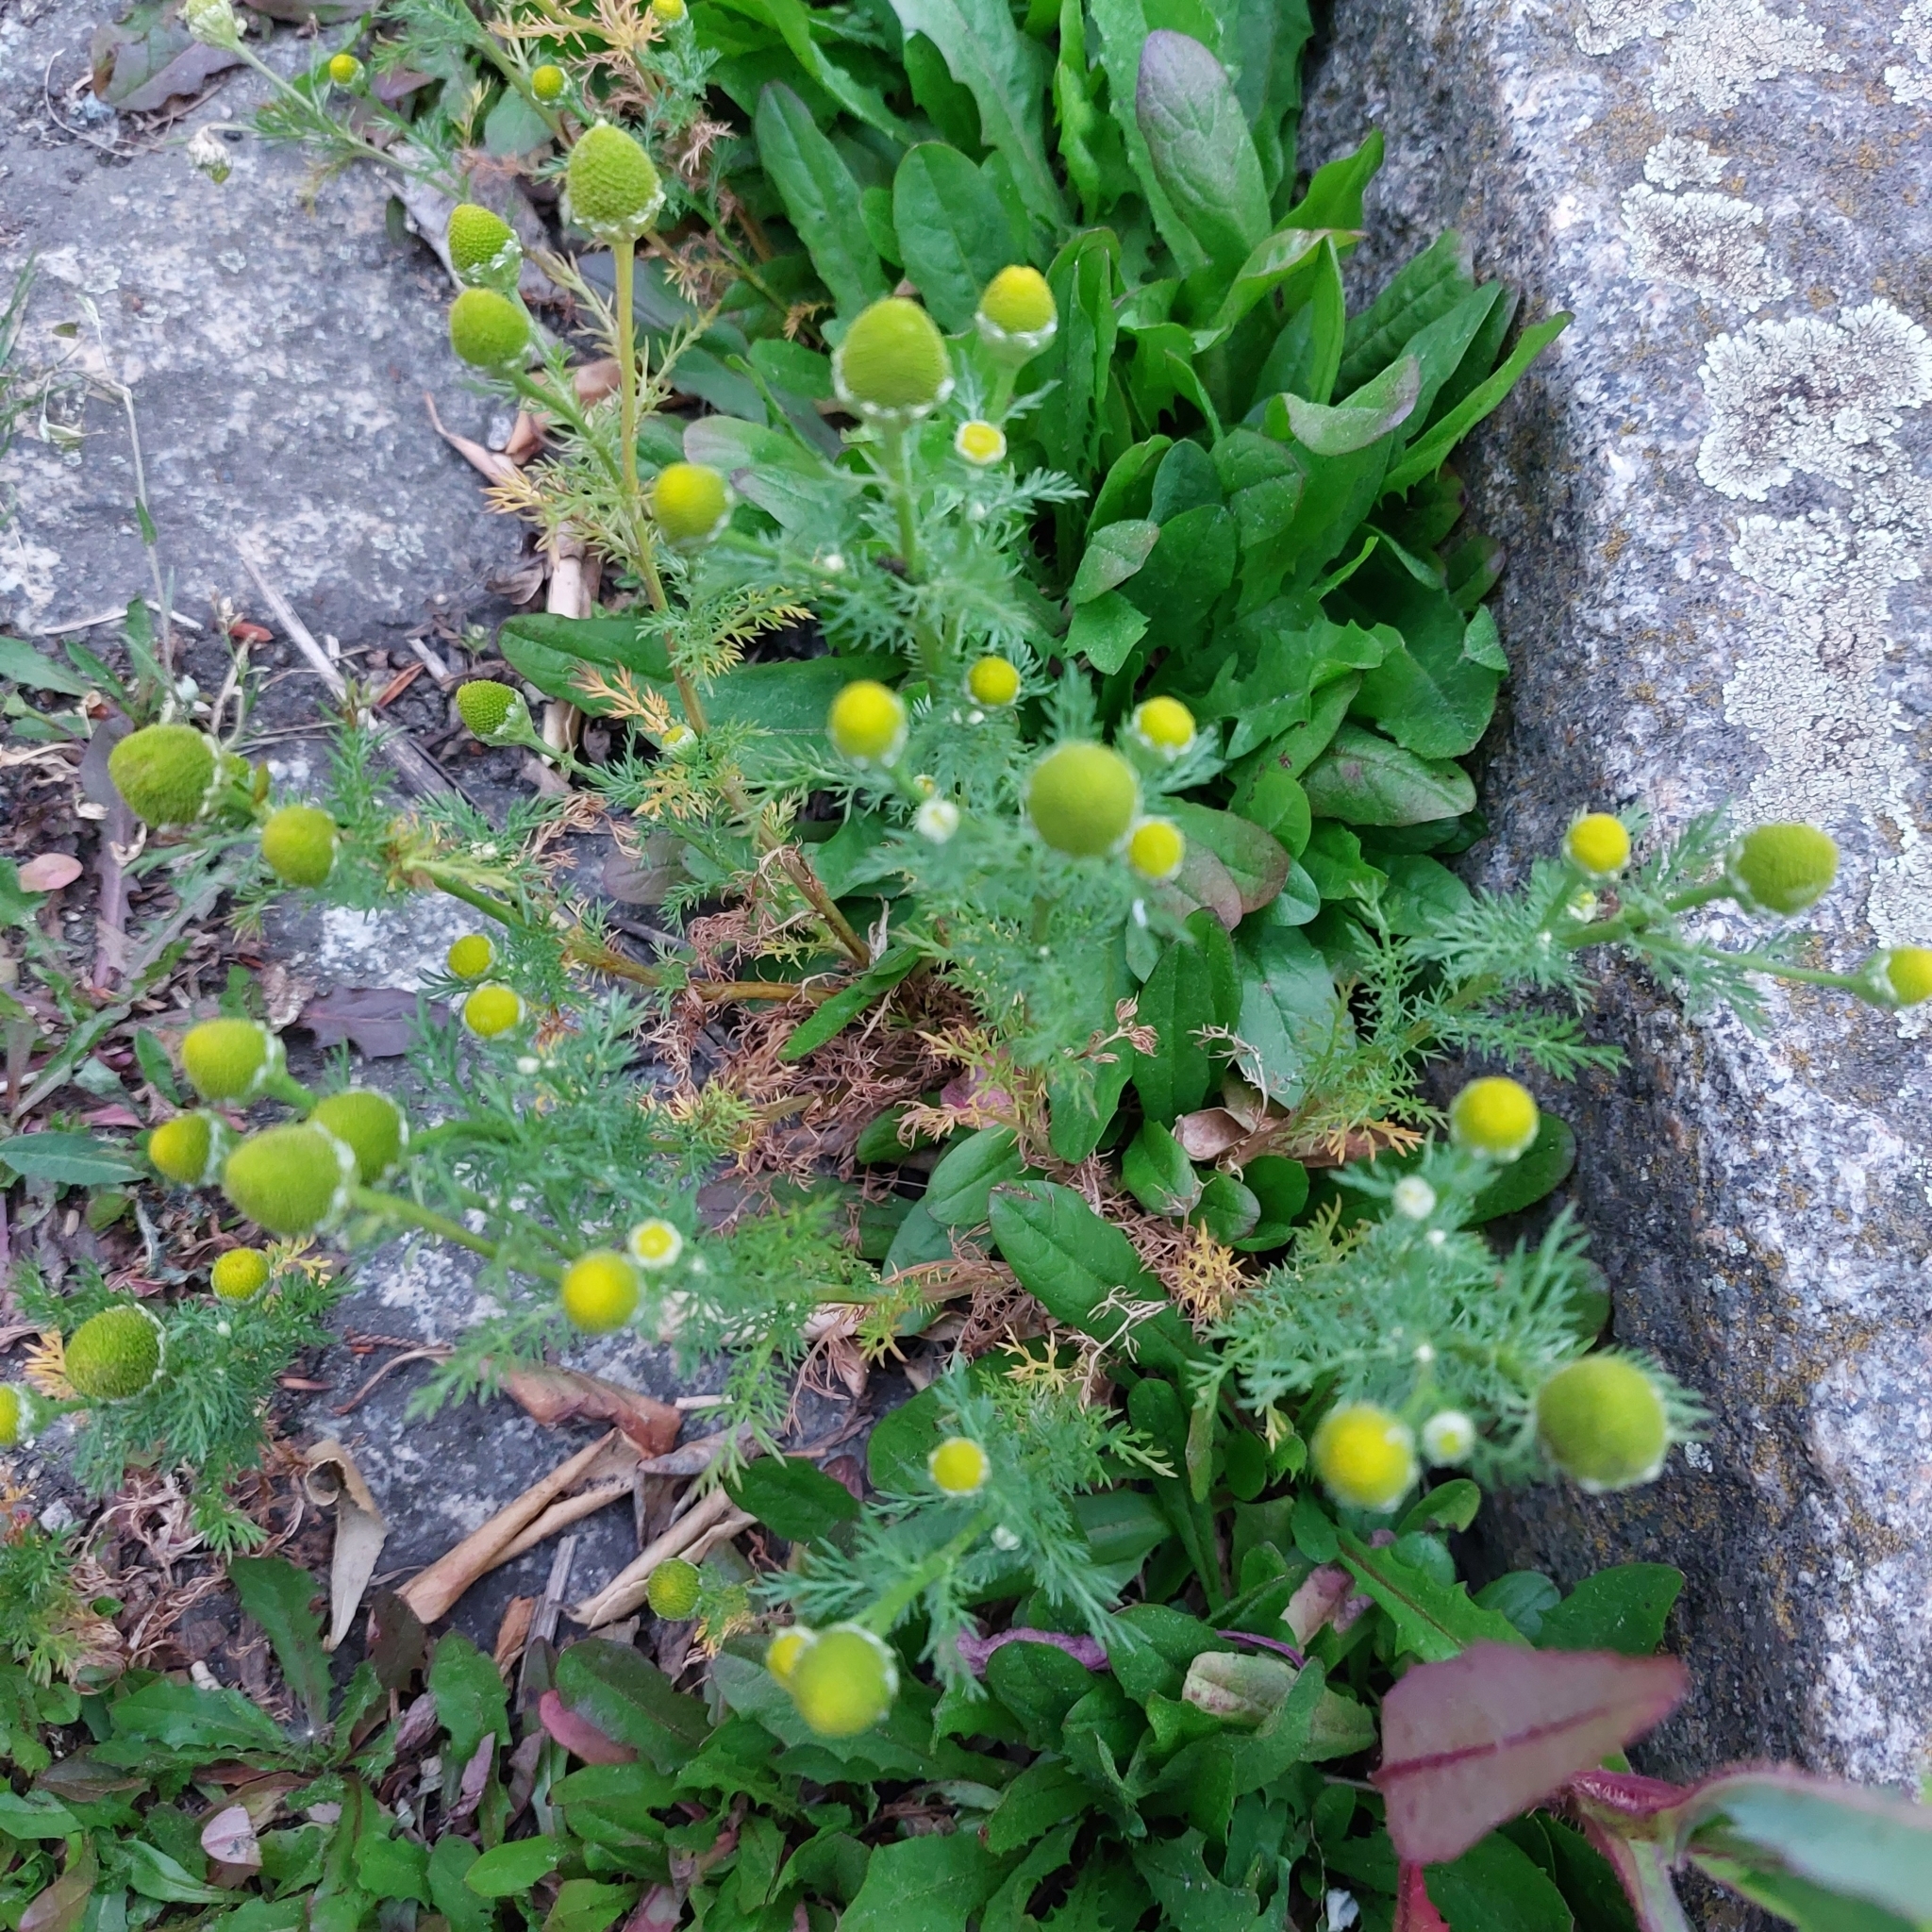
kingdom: Plantae
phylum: Tracheophyta
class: Magnoliopsida
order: Asterales
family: Asteraceae
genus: Matricaria
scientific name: Matricaria discoidea
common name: Disc mayweed
